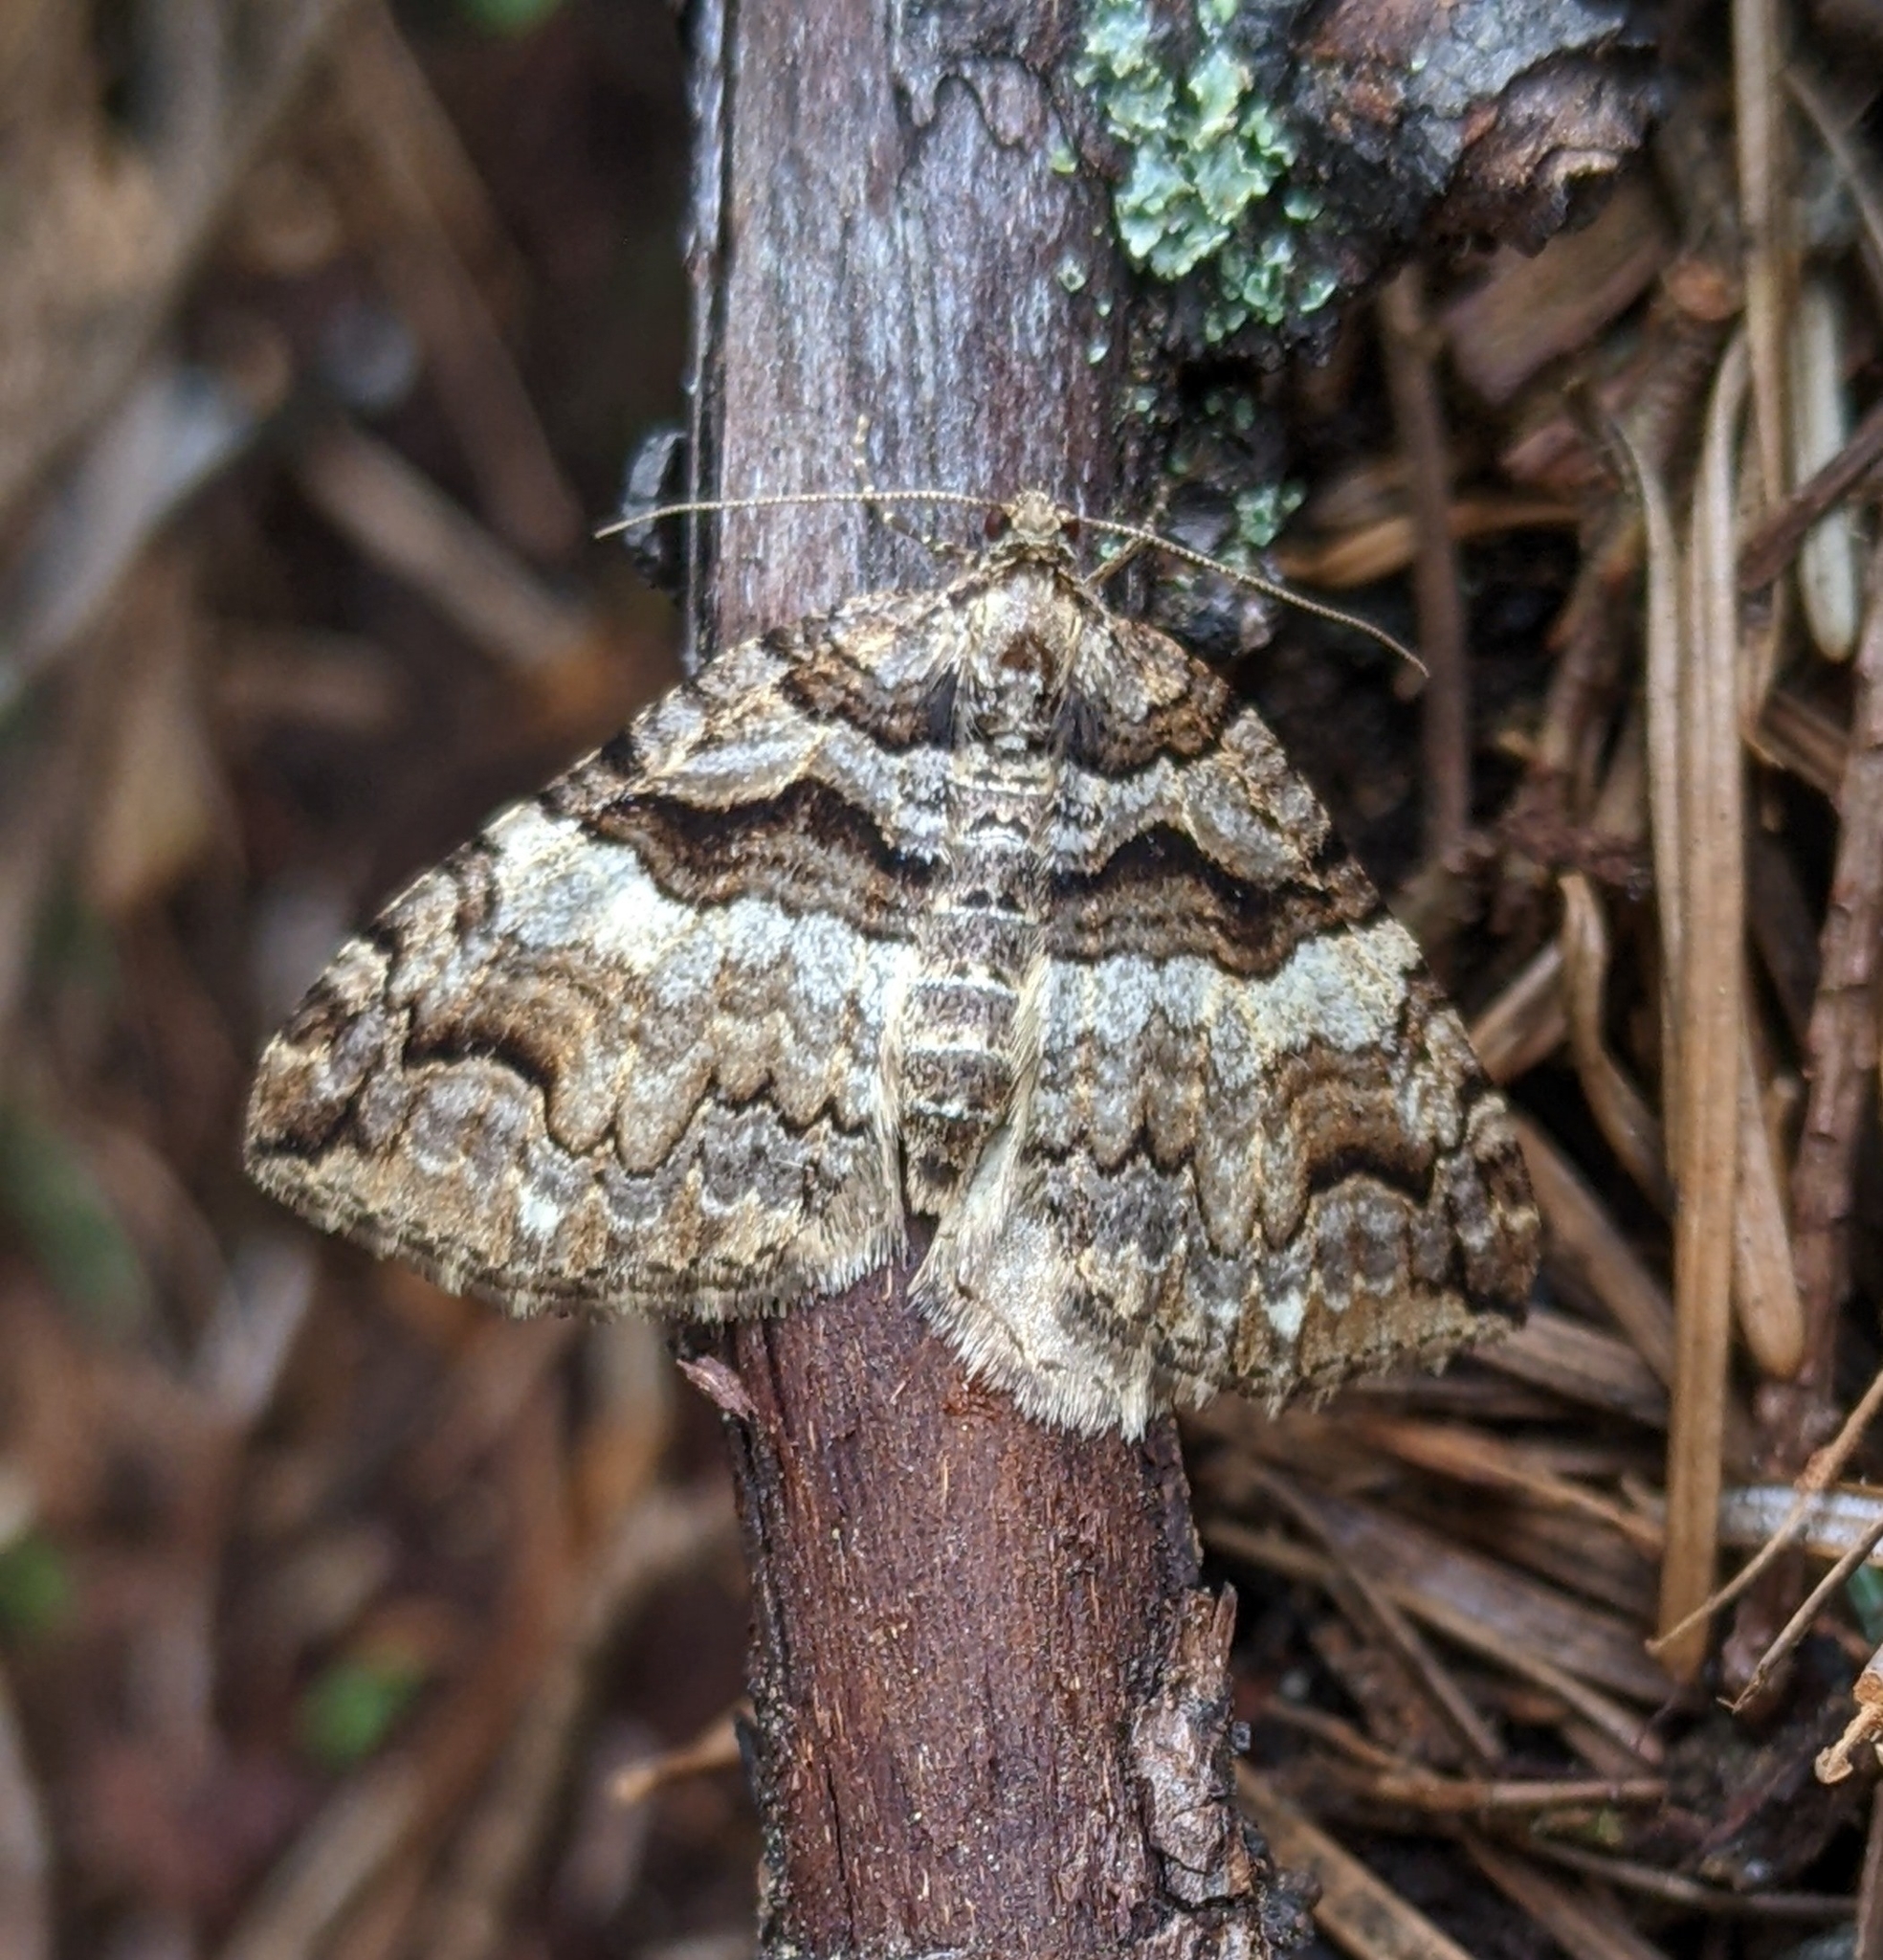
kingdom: Animalia
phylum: Arthropoda
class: Insecta
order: Lepidoptera
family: Geometridae
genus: Anticlea
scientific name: Anticlea vasiliata
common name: Variable carpet
